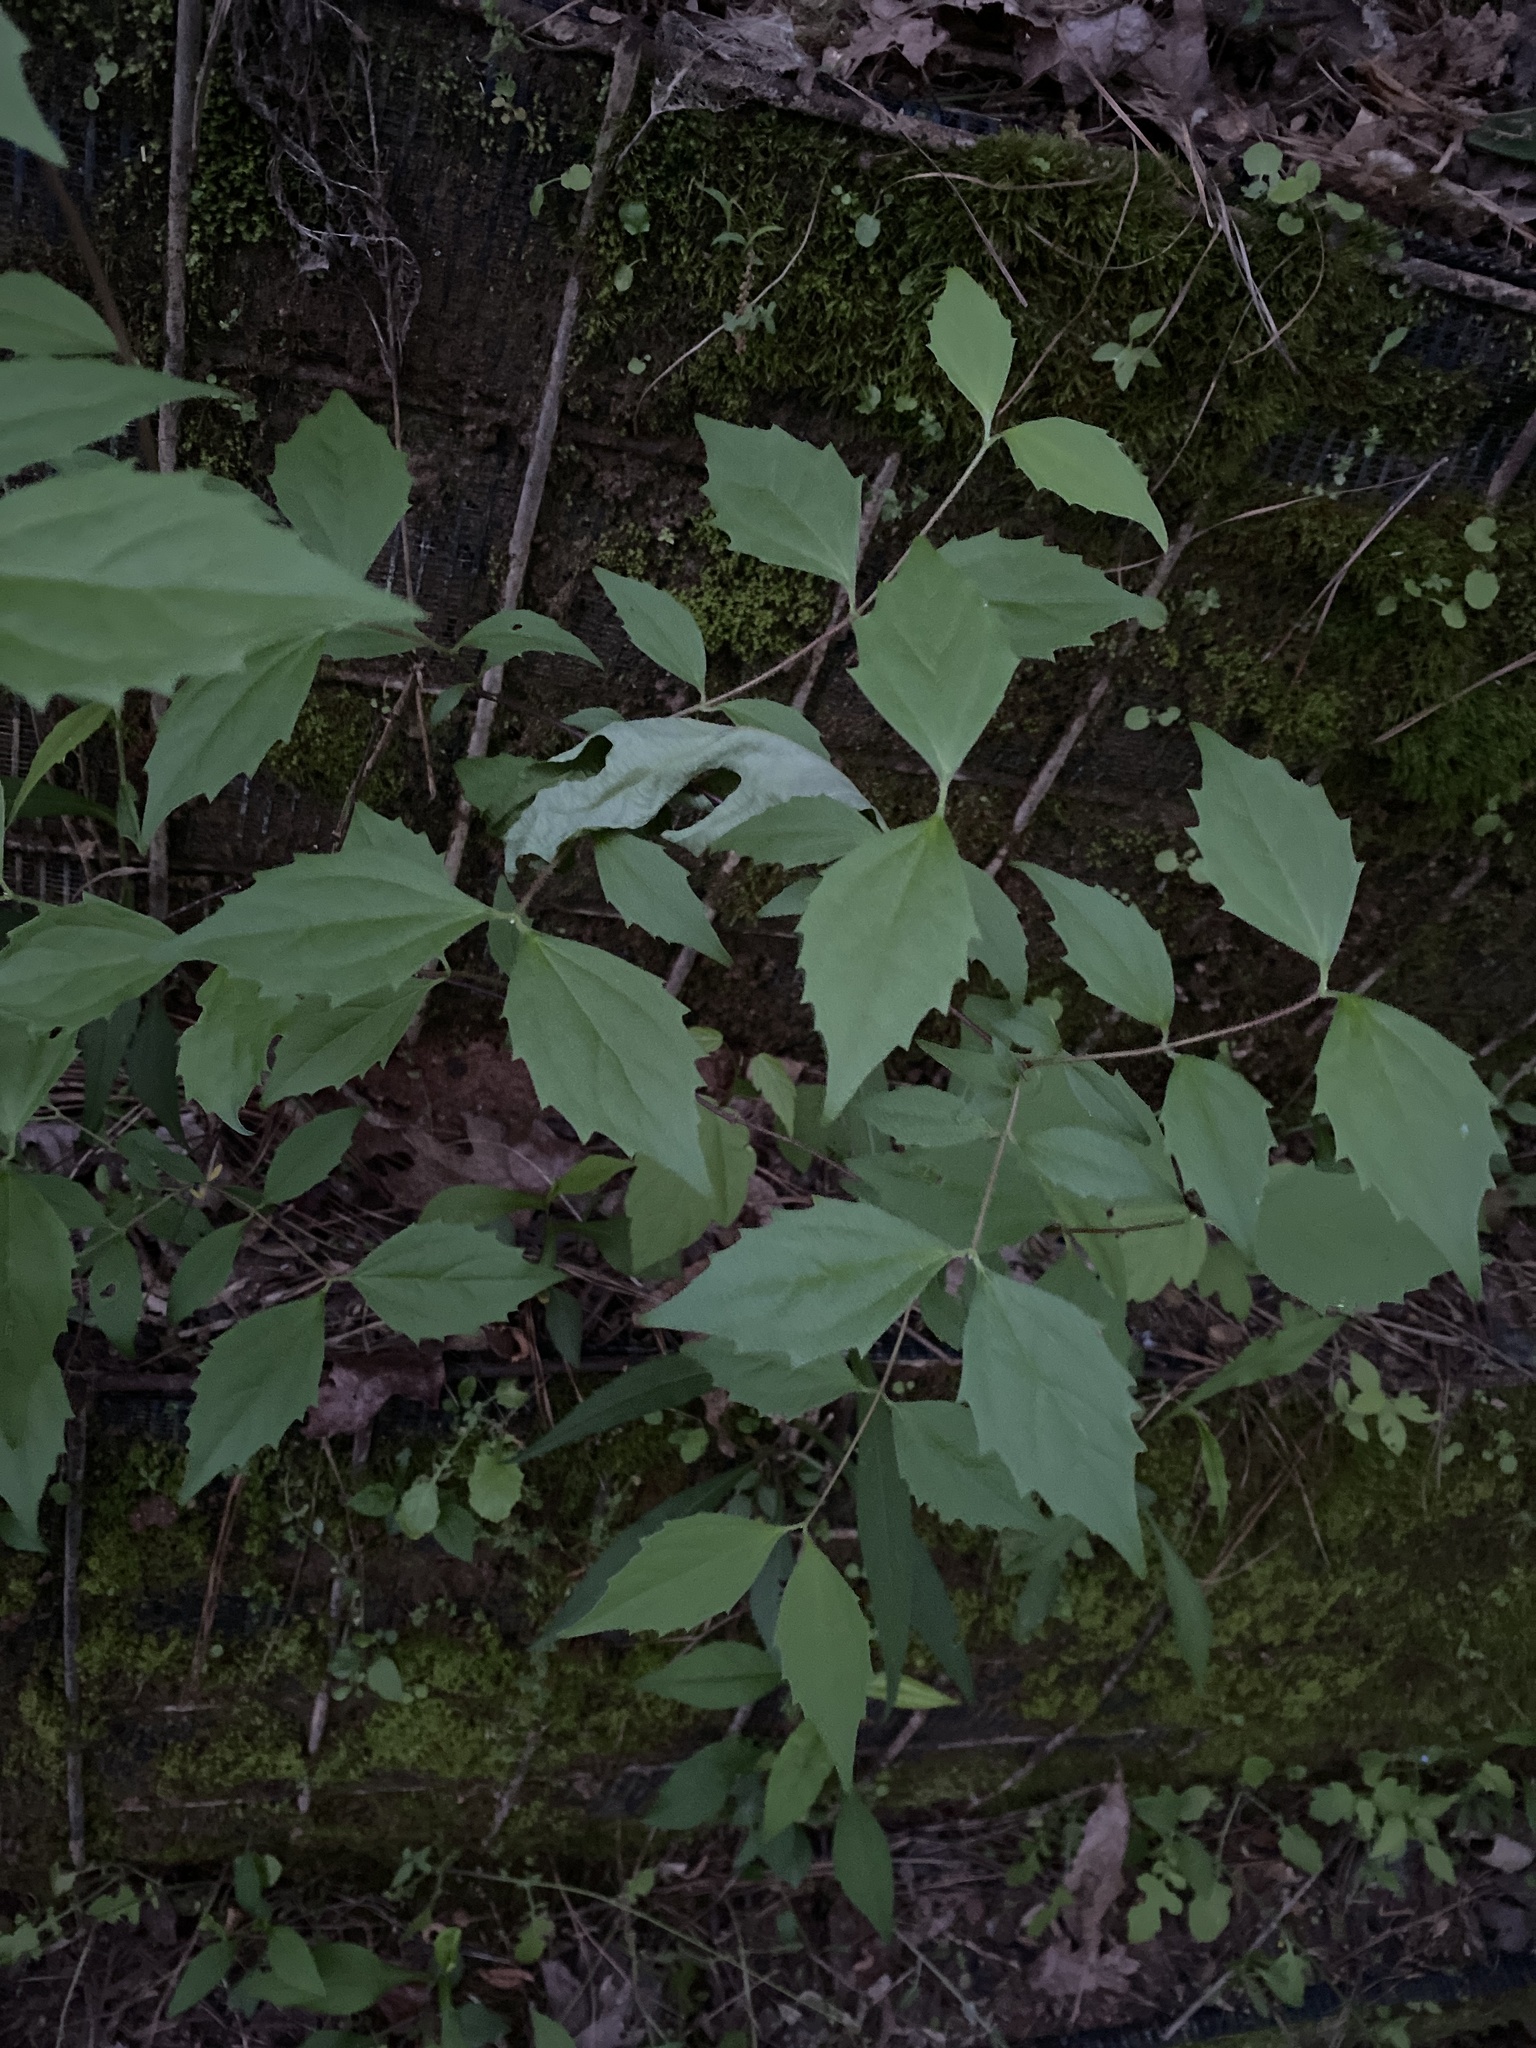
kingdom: Plantae
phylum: Tracheophyta
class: Magnoliopsida
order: Cornales
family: Hydrangeaceae
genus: Philadelphus
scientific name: Philadelphus coronarius
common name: Mock orange
